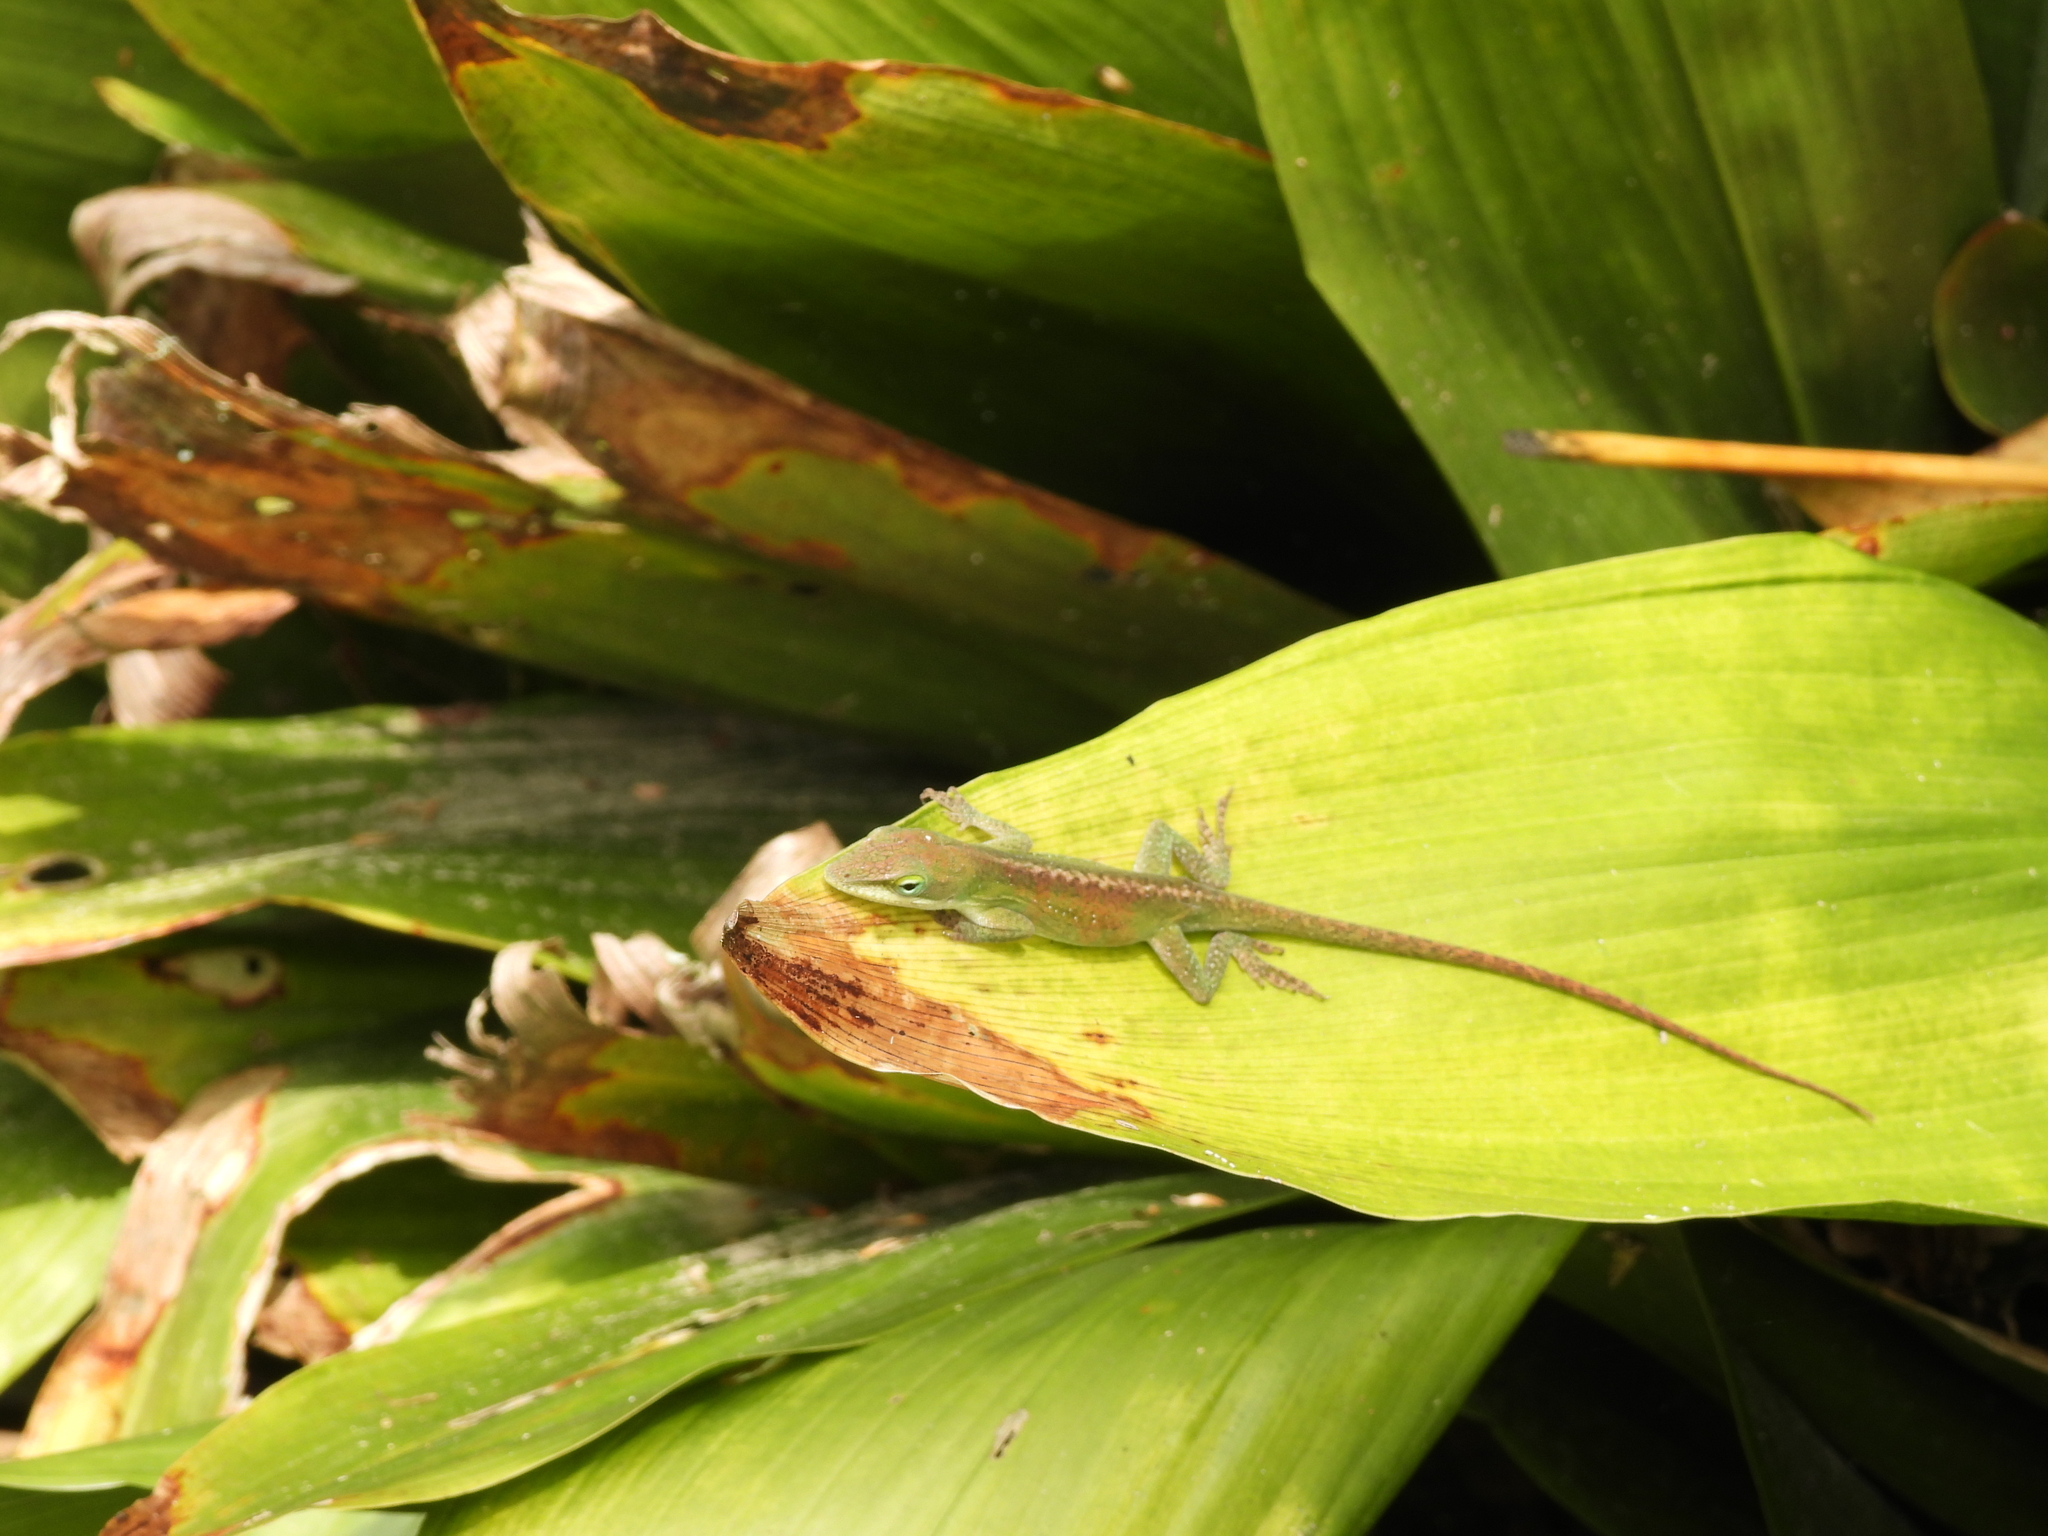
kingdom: Animalia
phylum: Chordata
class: Squamata
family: Dactyloidae
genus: Anolis
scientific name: Anolis carolinensis
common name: Green anole
